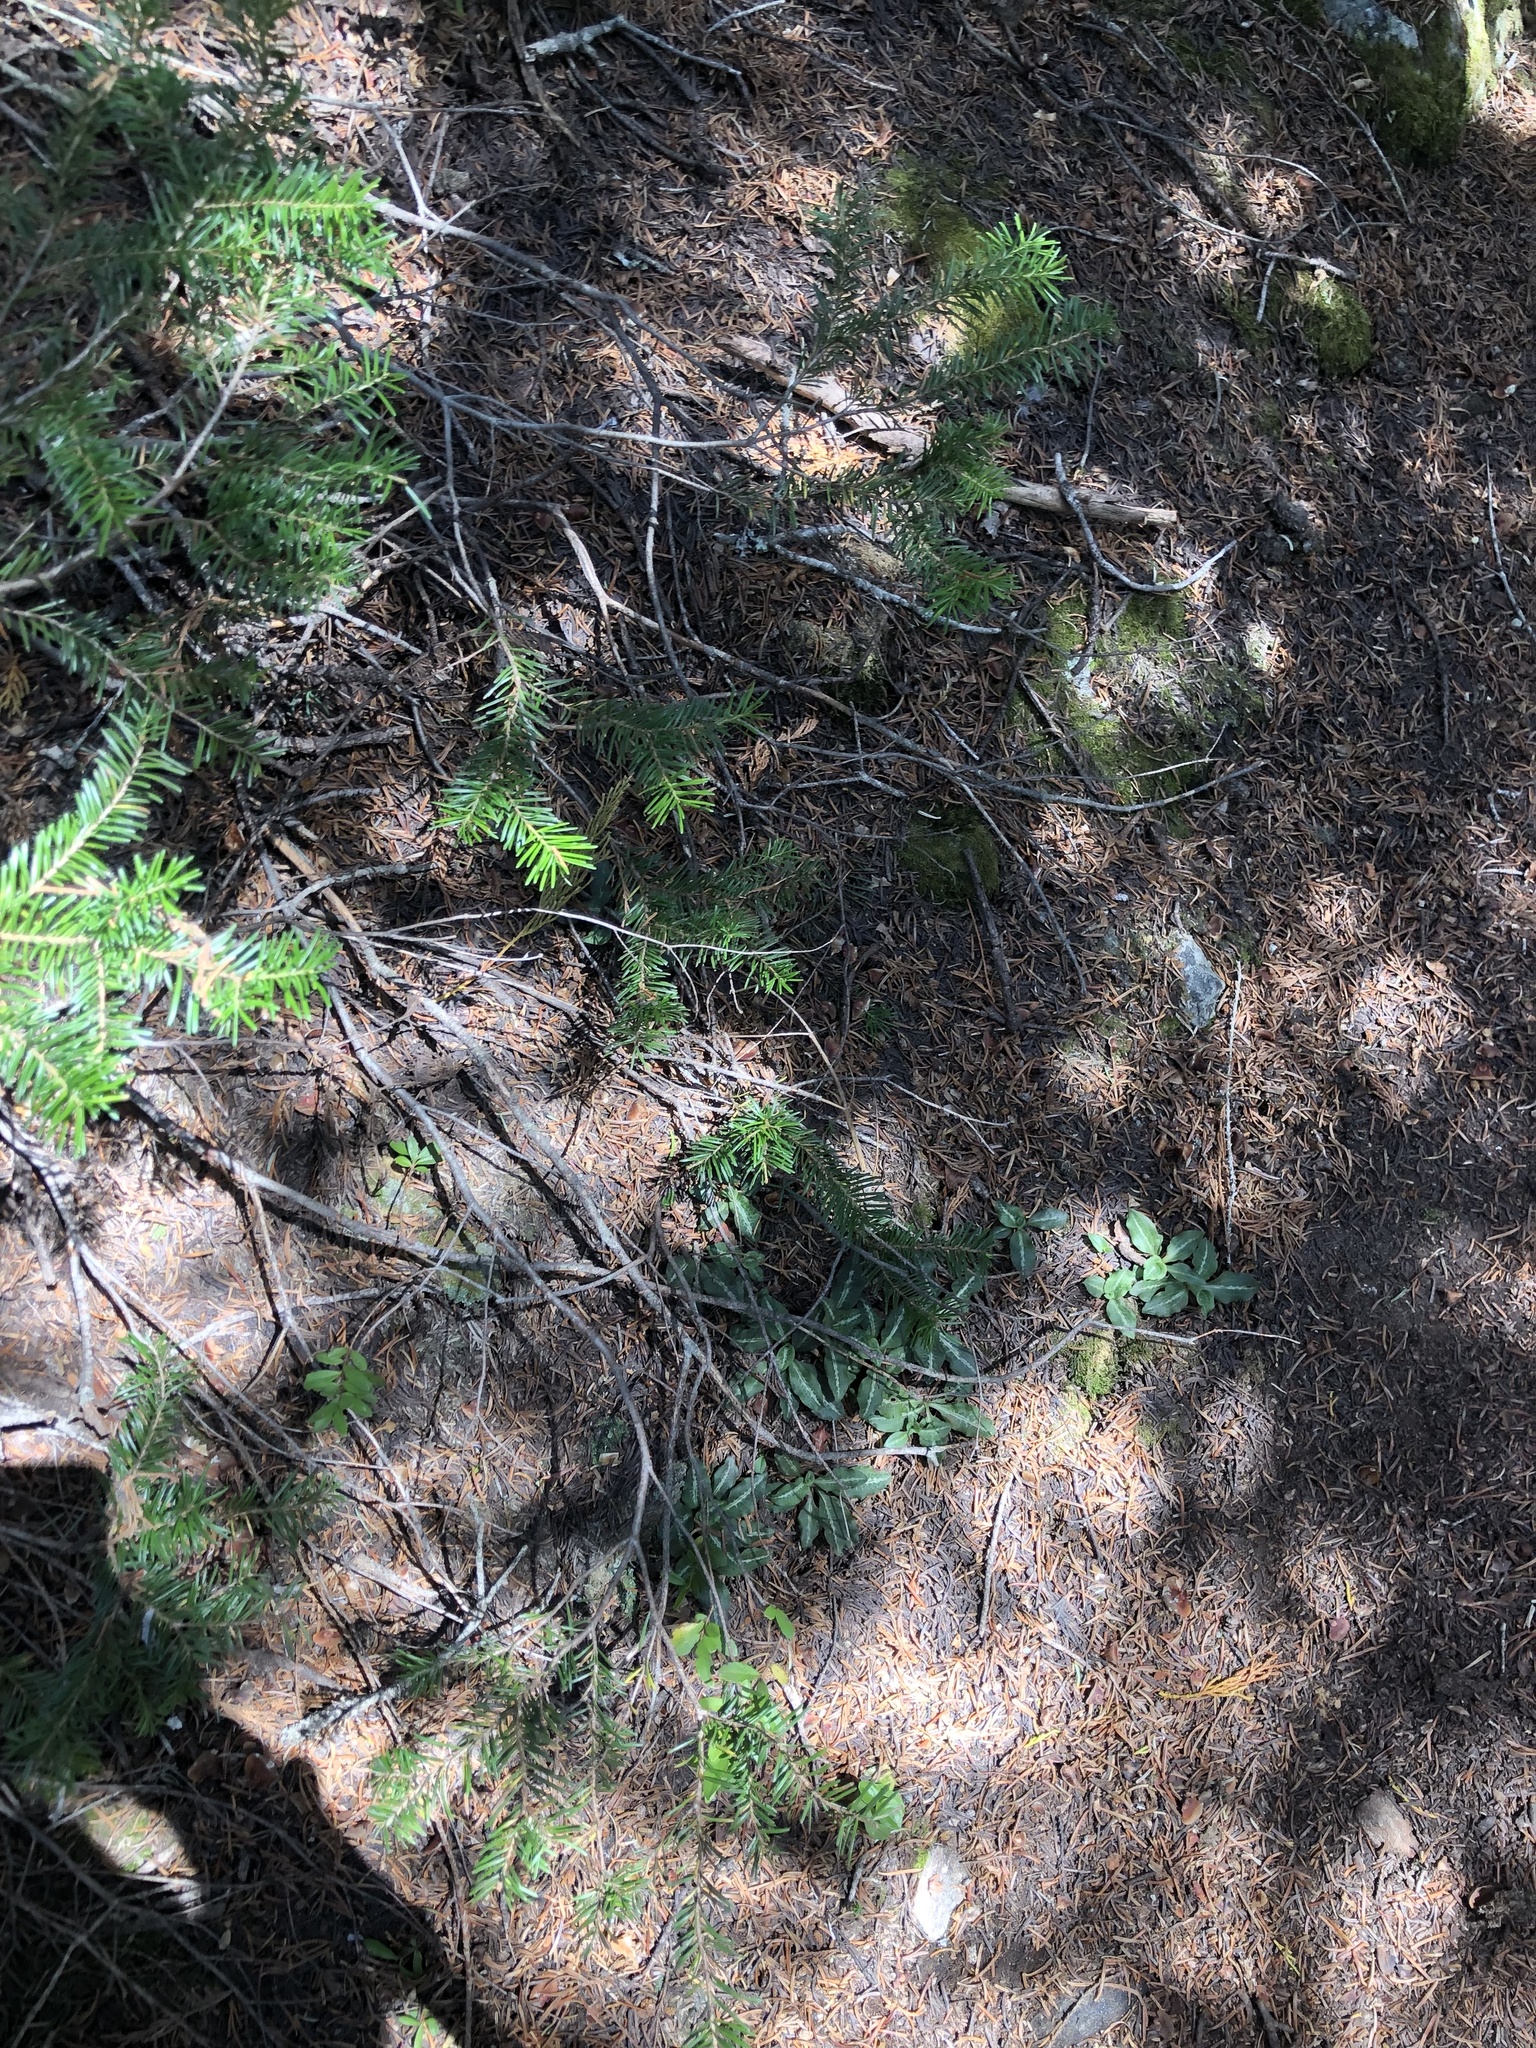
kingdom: Plantae
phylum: Tracheophyta
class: Liliopsida
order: Asparagales
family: Orchidaceae
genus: Goodyera
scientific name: Goodyera oblongifolia
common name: Giant rattlesnake-plantain
